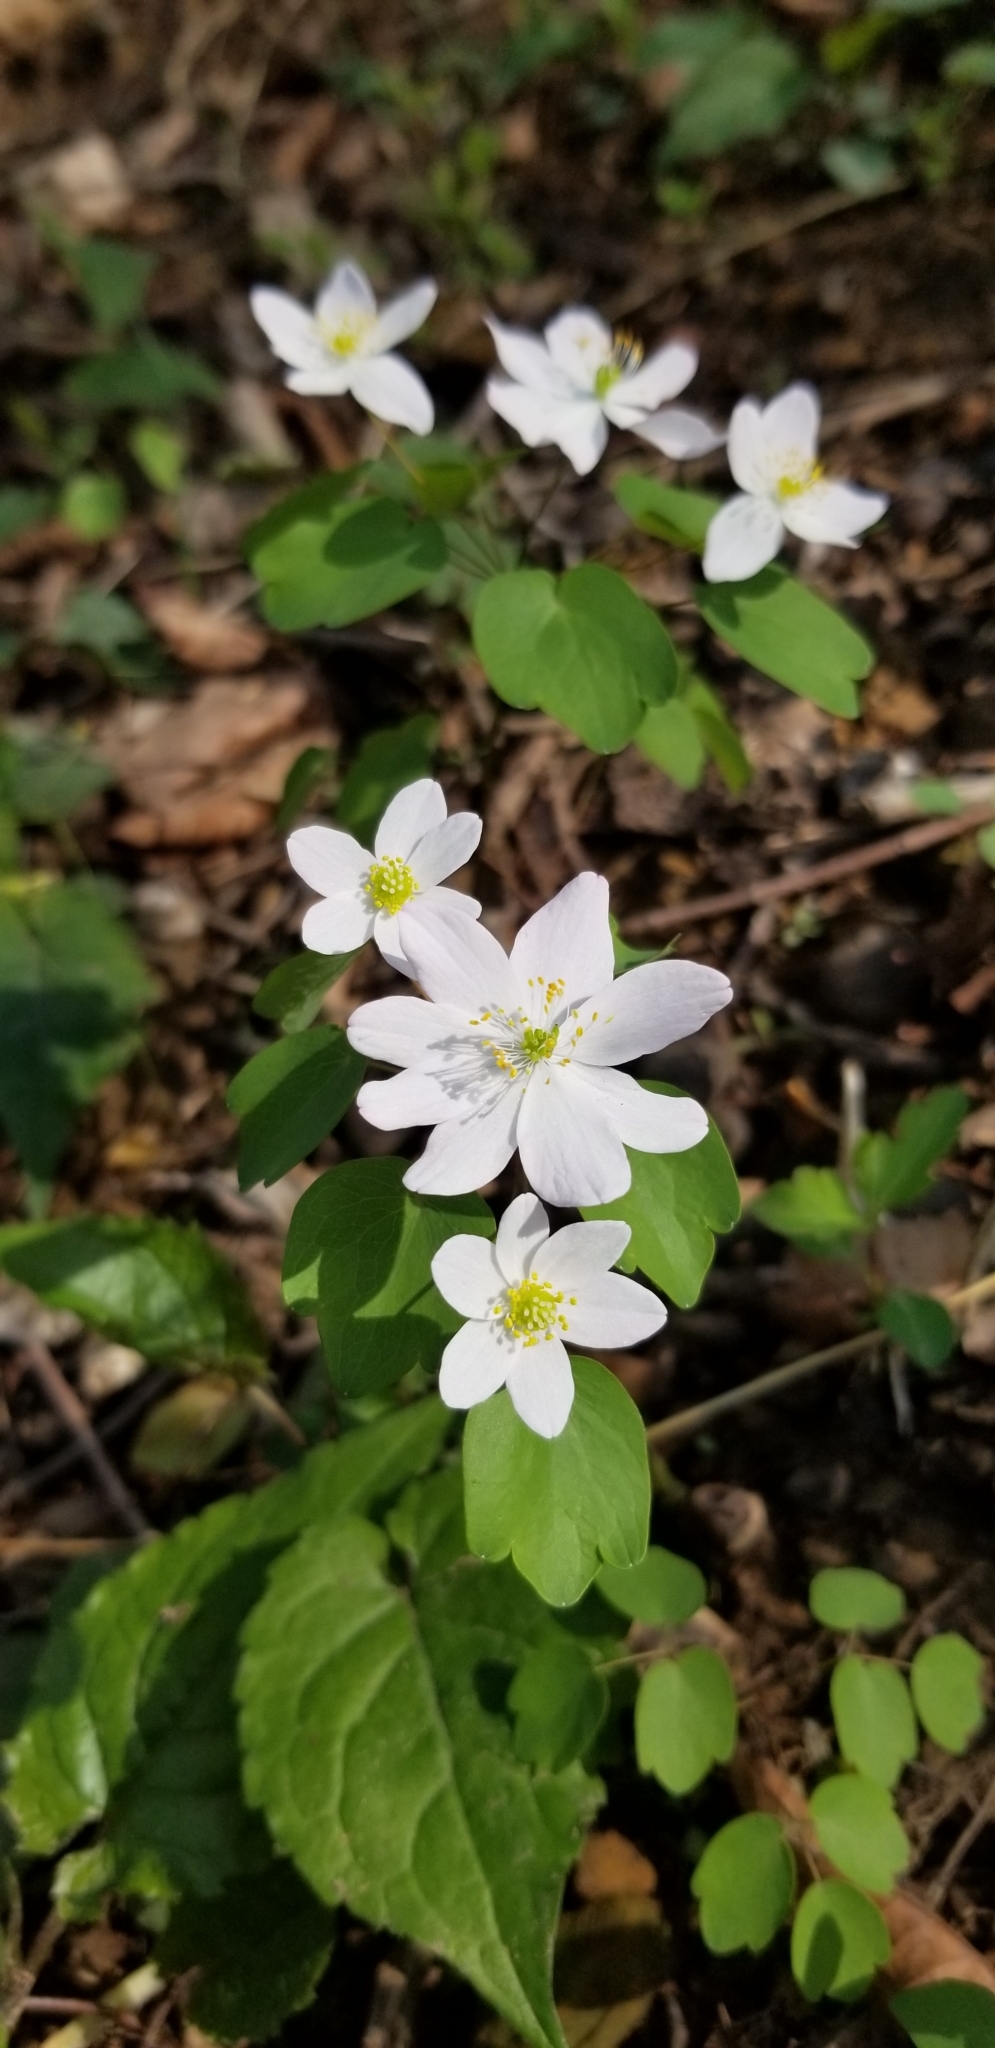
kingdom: Plantae
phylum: Tracheophyta
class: Magnoliopsida
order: Ranunculales
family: Ranunculaceae
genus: Thalictrum
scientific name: Thalictrum thalictroides
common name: Rue-anemone
